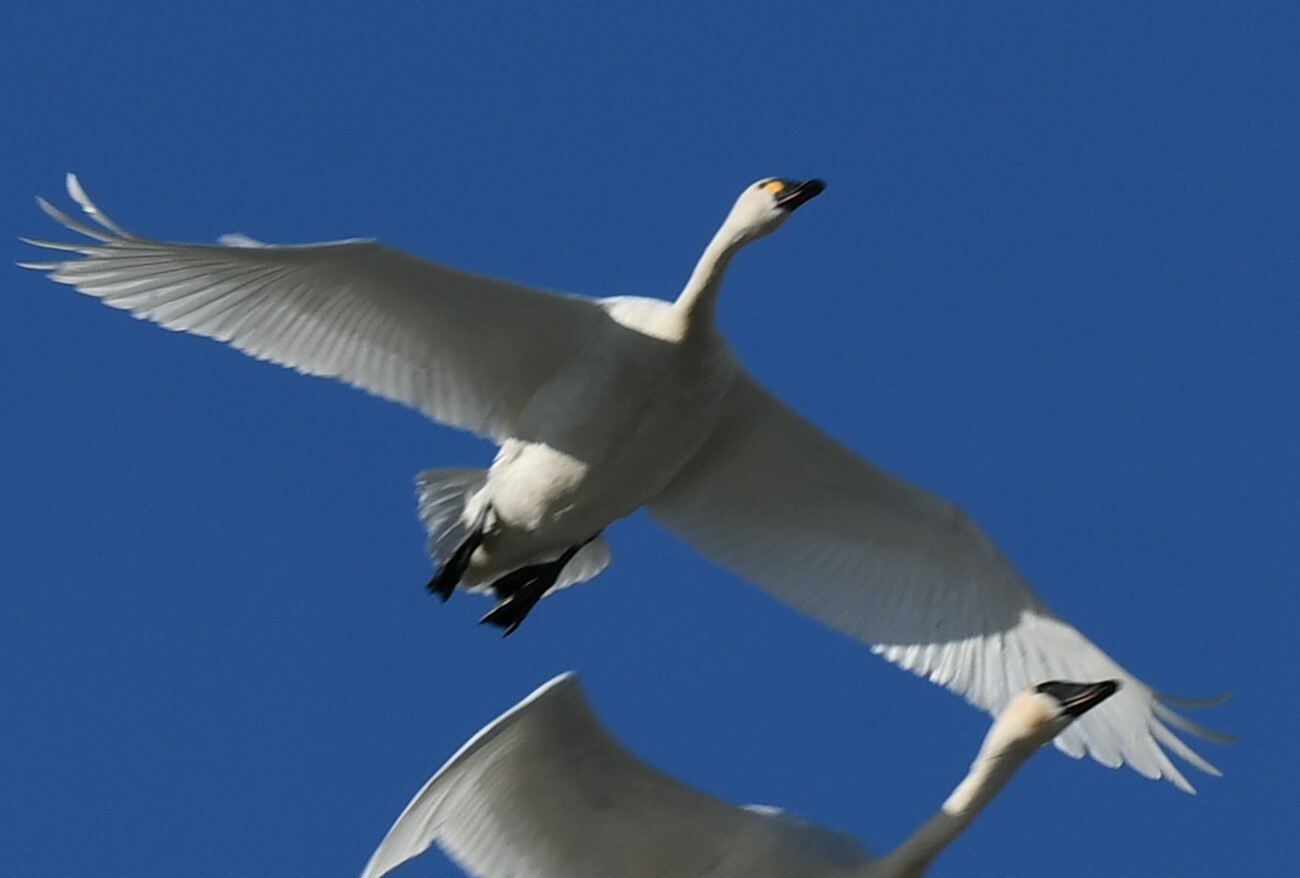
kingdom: Animalia
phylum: Chordata
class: Aves
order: Anseriformes
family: Anatidae
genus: Cygnus
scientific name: Cygnus columbianus
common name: Tundra swan
